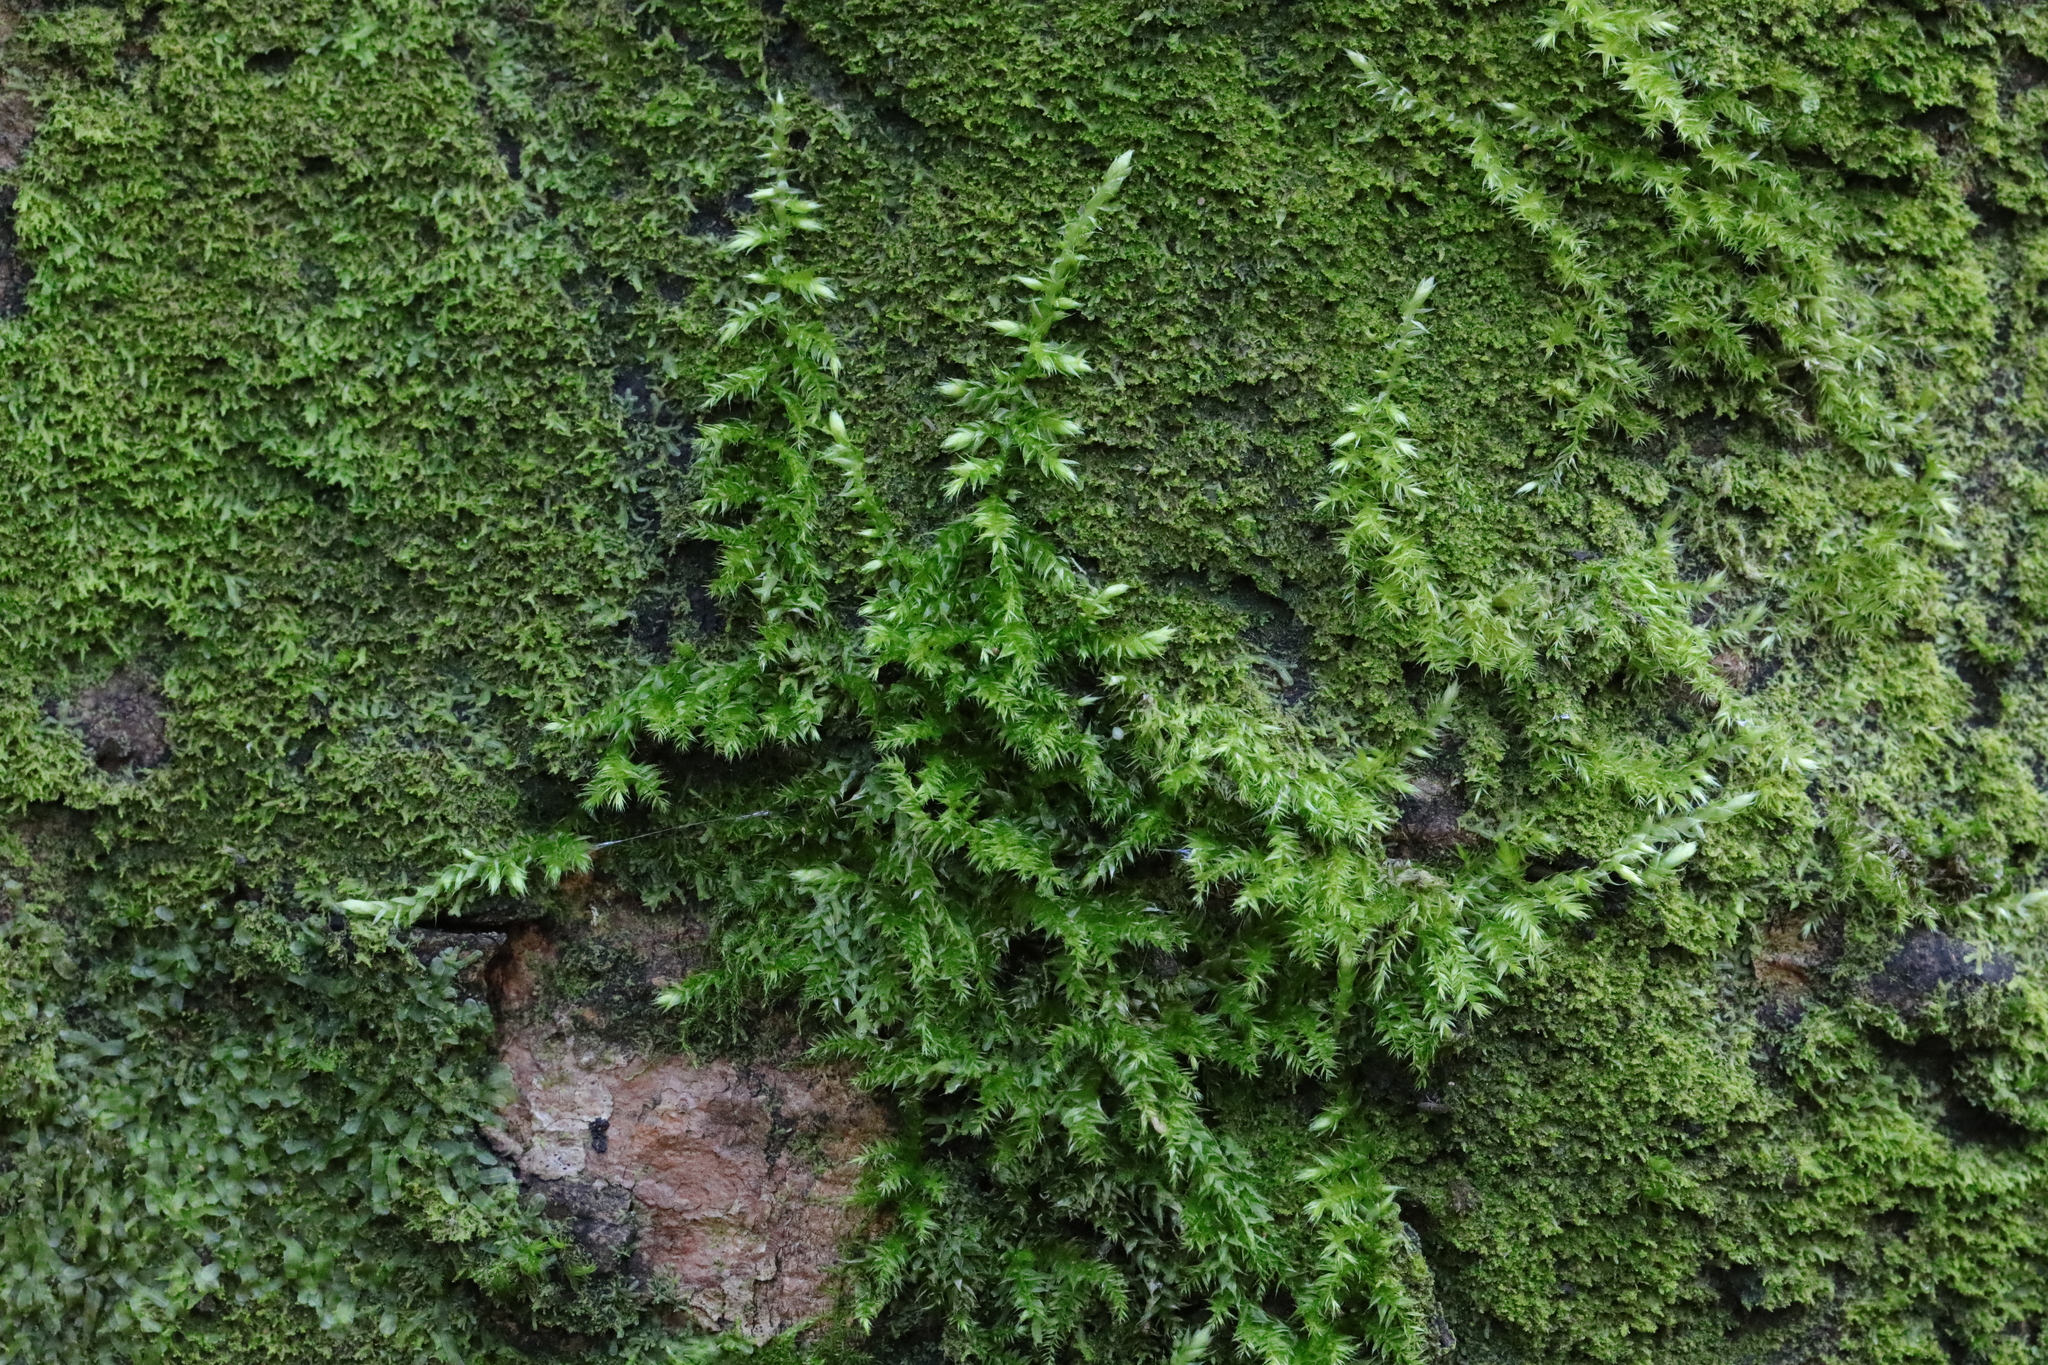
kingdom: Plantae
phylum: Bryophyta
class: Bryopsida
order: Hypnales
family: Brachytheciaceae
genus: Brachythecium
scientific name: Brachythecium rutabulum
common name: Rough-stalked feather-moss
